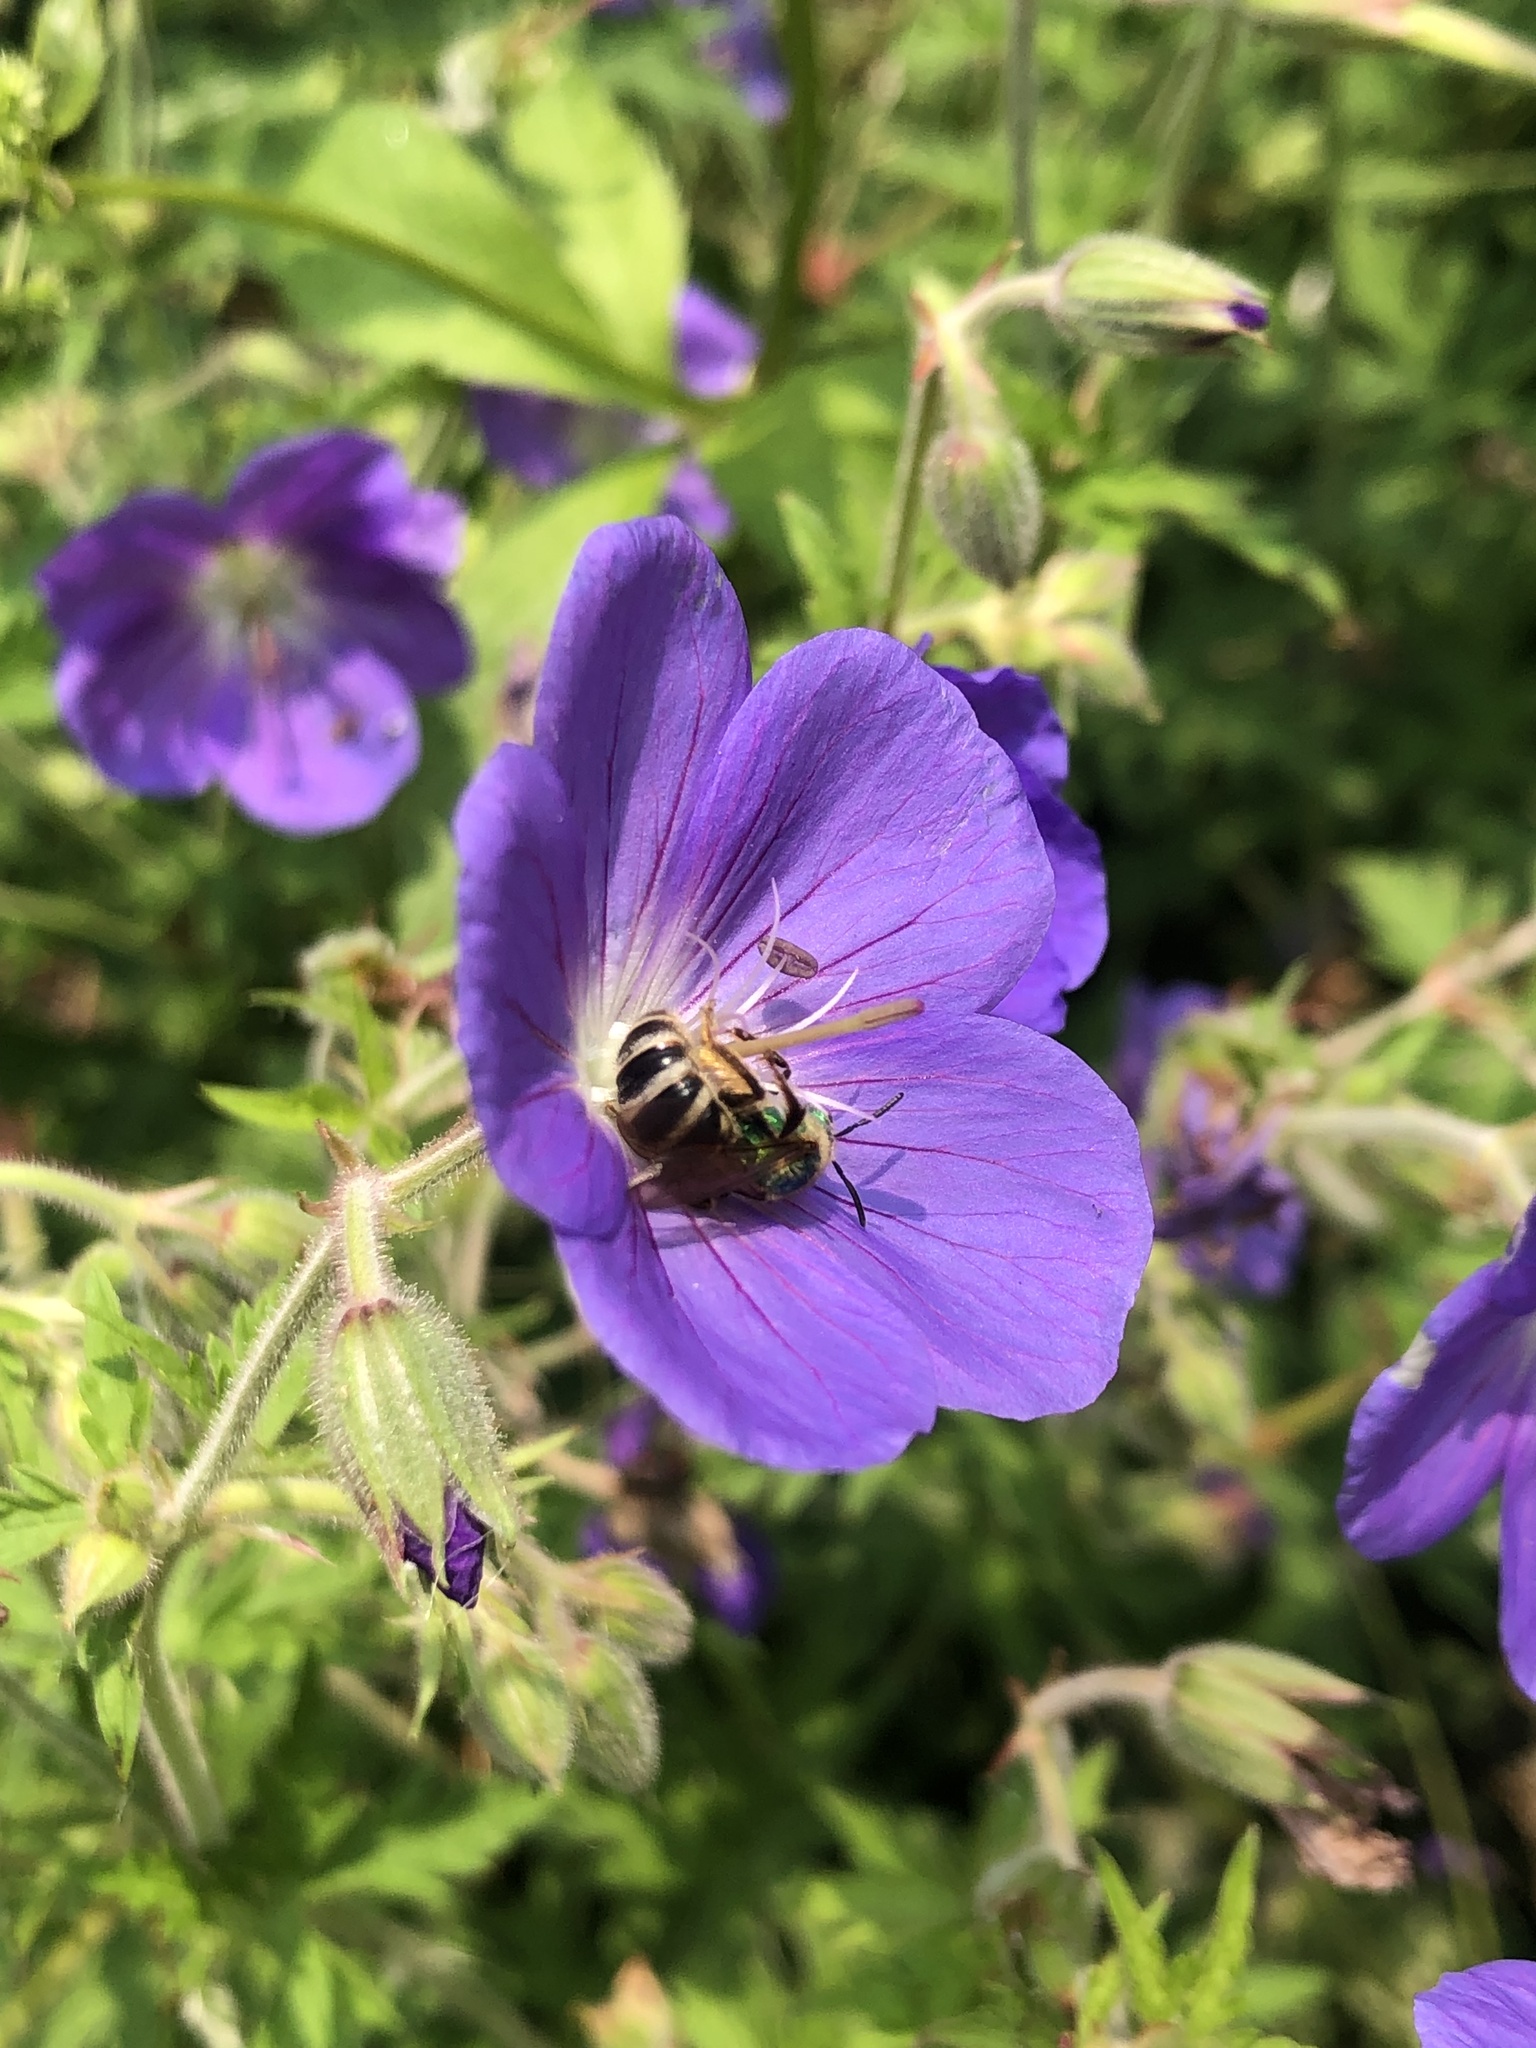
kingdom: Animalia
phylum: Arthropoda
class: Insecta
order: Hymenoptera
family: Halictidae
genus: Agapostemon
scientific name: Agapostemon virescens
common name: Bicolored striped sweat bee
